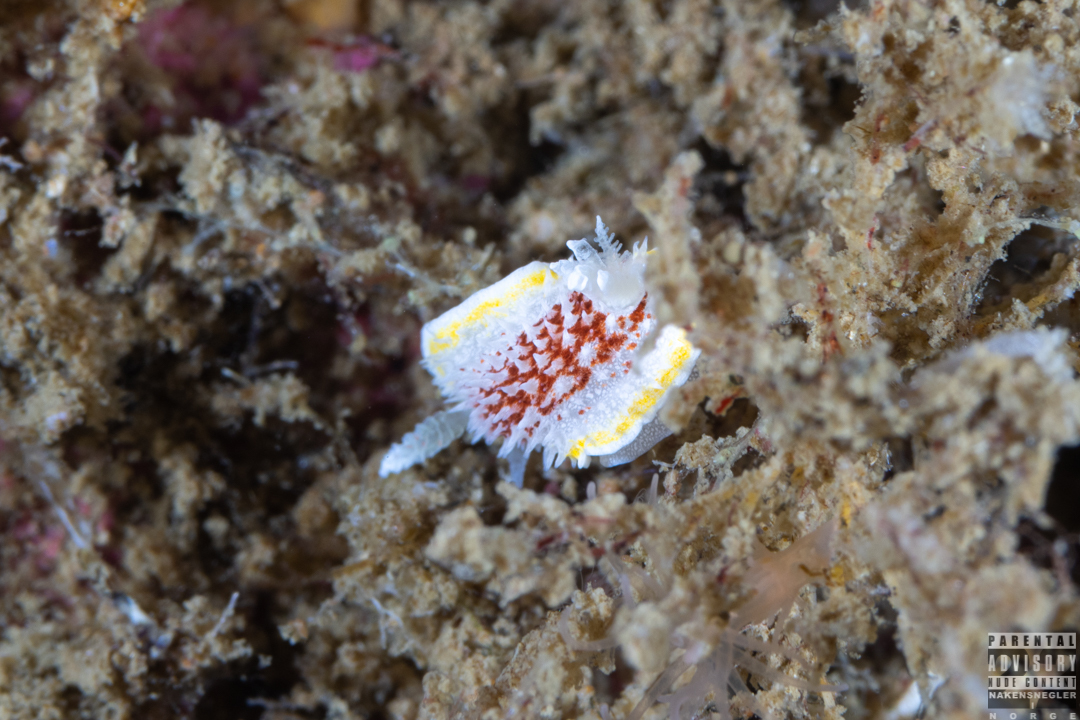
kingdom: Animalia
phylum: Mollusca
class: Gastropoda
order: Nudibranchia
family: Calycidorididae
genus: Diaphorodoris
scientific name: Diaphorodoris luteocincta
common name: Fried egg nudibranch
